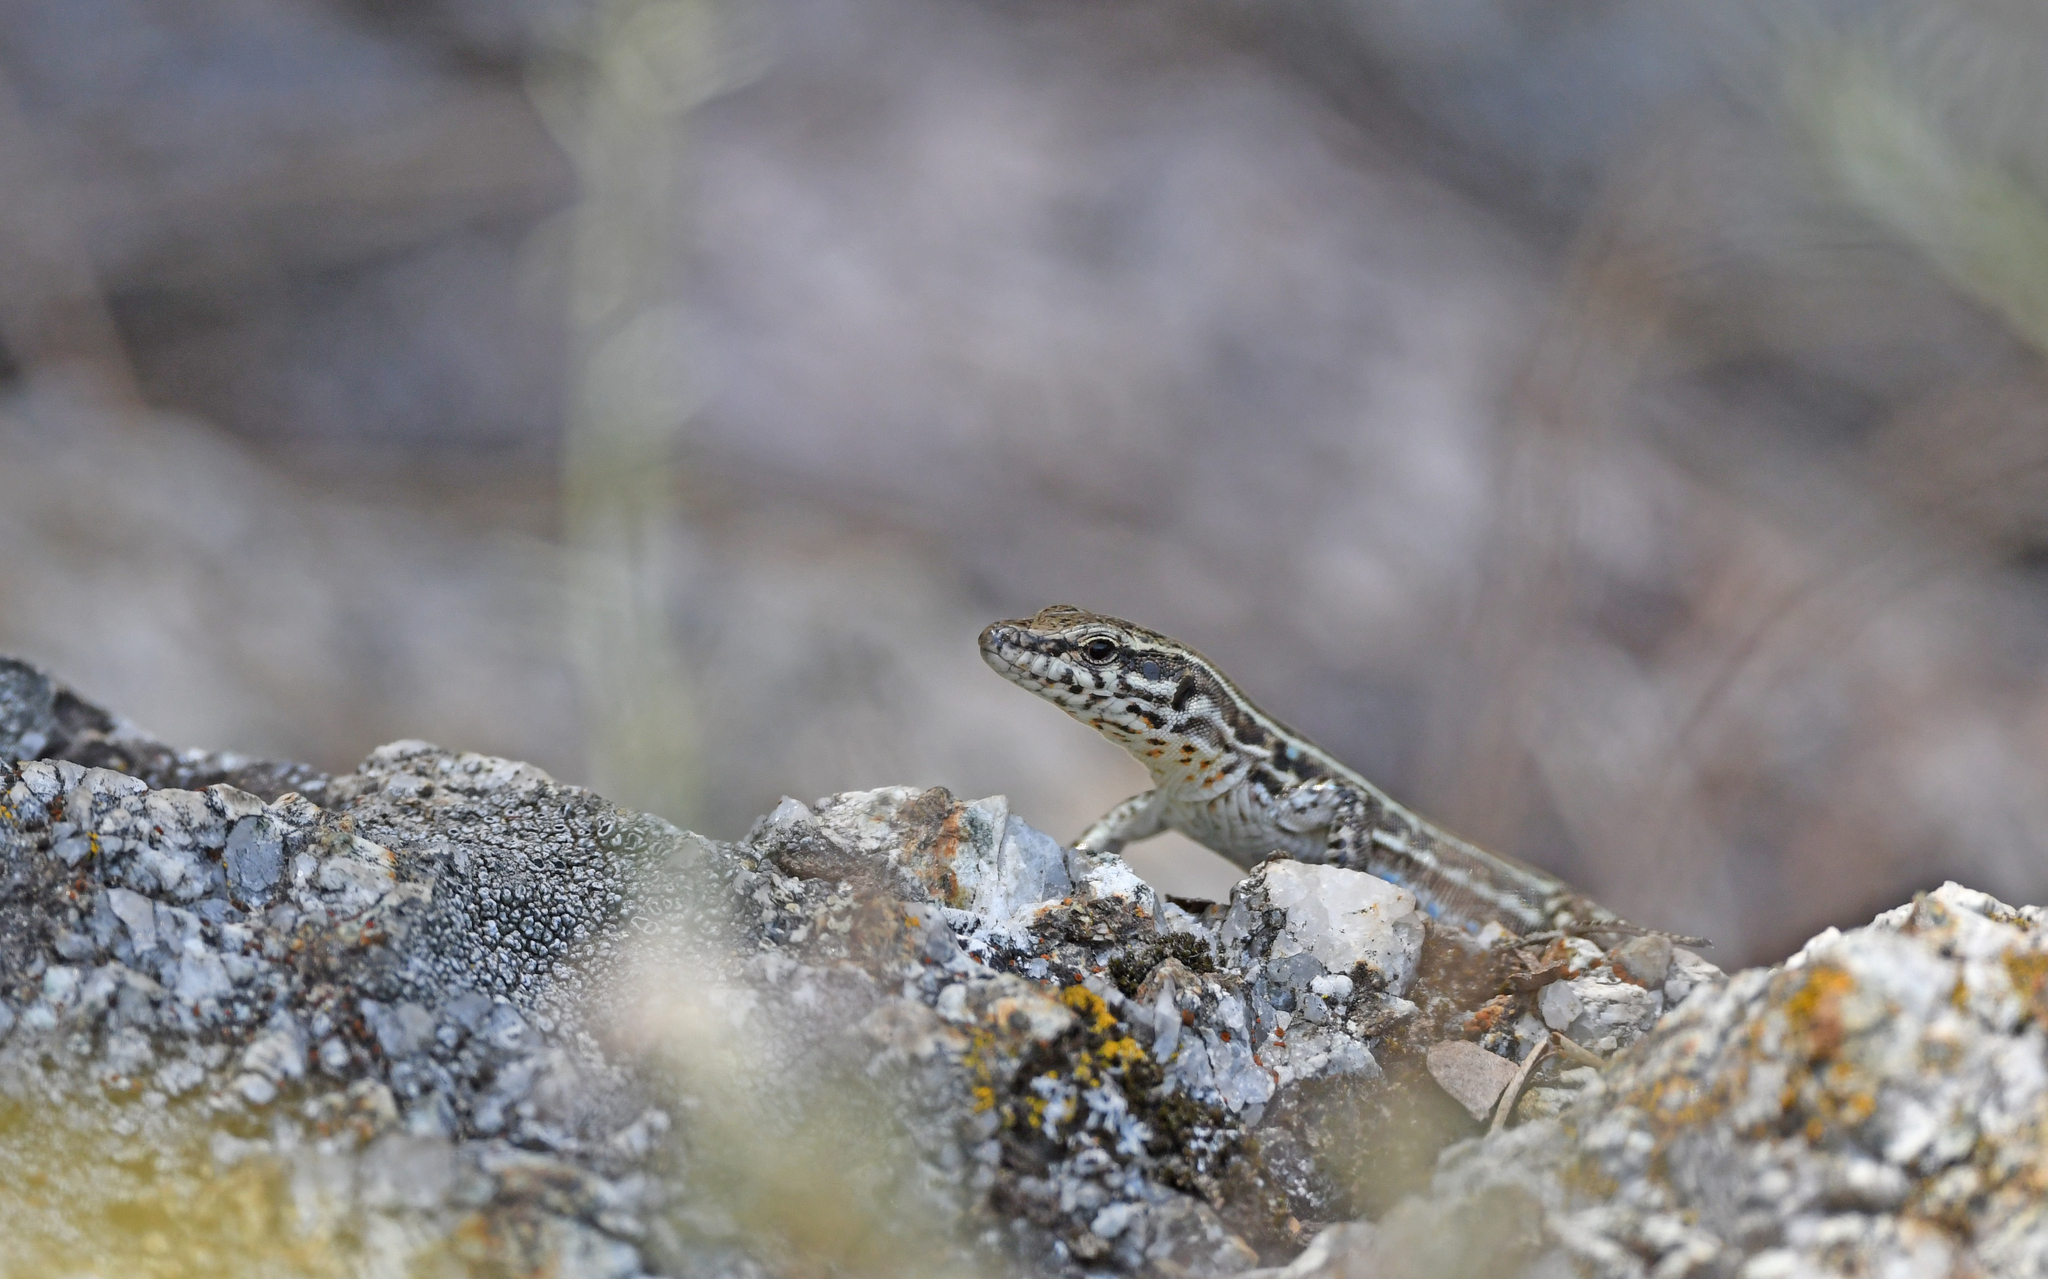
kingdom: Animalia
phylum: Chordata
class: Squamata
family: Lacertidae
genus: Podarcis
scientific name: Podarcis tiliguerta
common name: Tyrrhenian wall lizard
